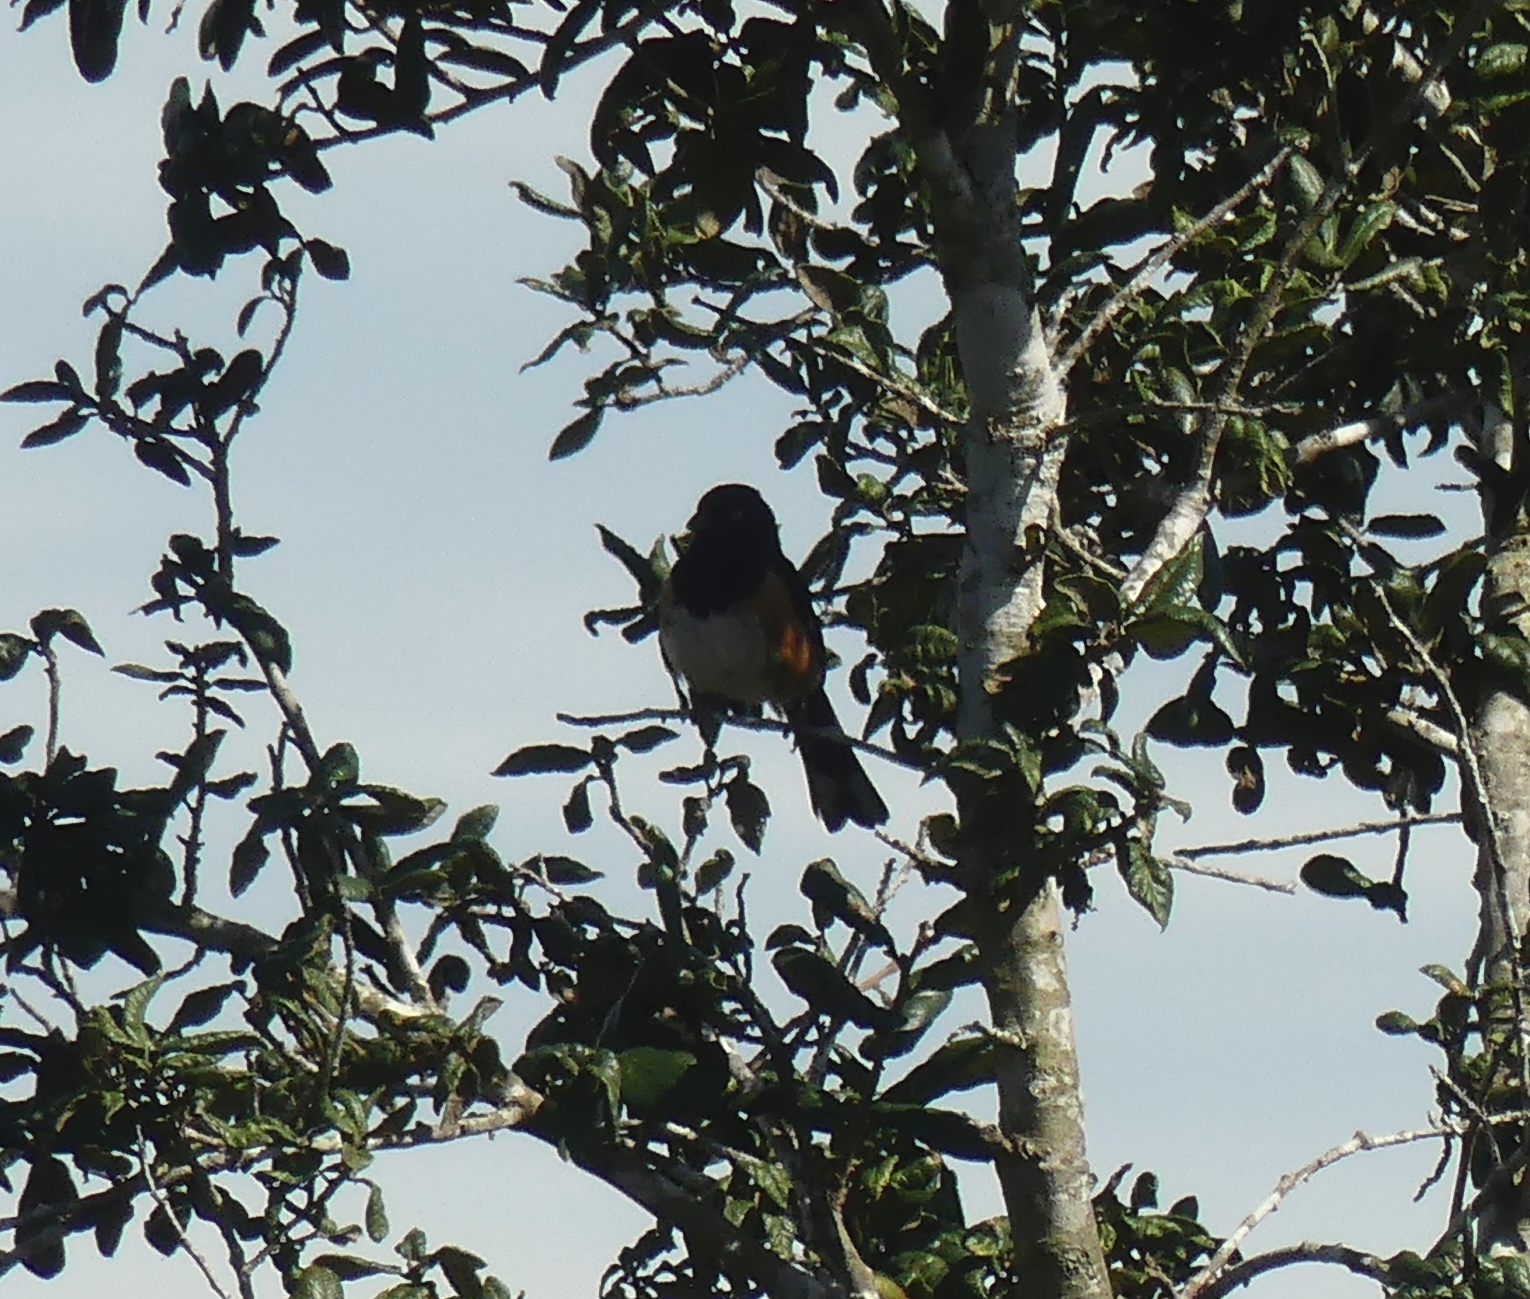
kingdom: Animalia
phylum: Chordata
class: Aves
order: Passeriformes
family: Passerellidae
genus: Pipilo
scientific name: Pipilo erythrophthalmus
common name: Eastern towhee
